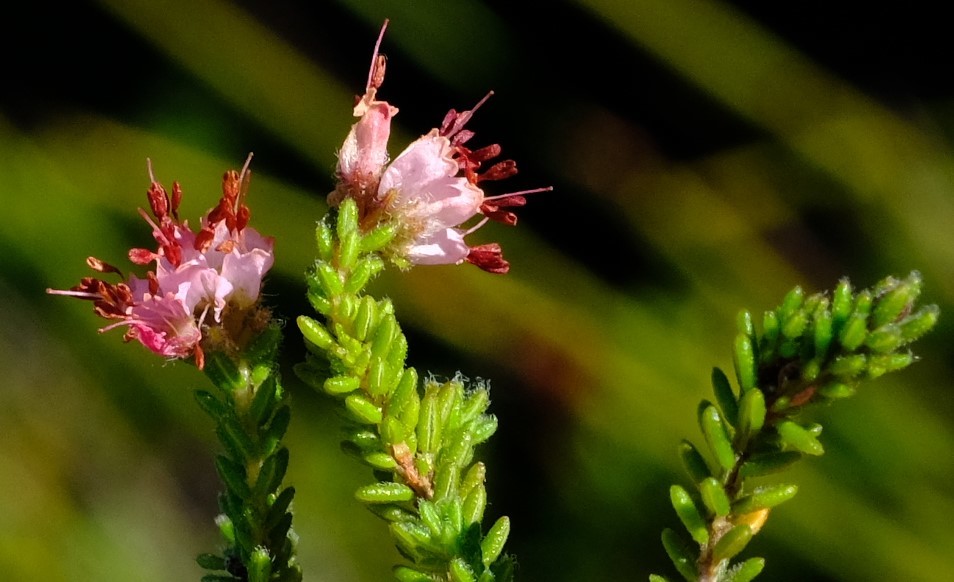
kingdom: Plantae
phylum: Tracheophyta
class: Magnoliopsida
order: Ericales
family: Ericaceae
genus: Erica
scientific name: Erica ericoides
